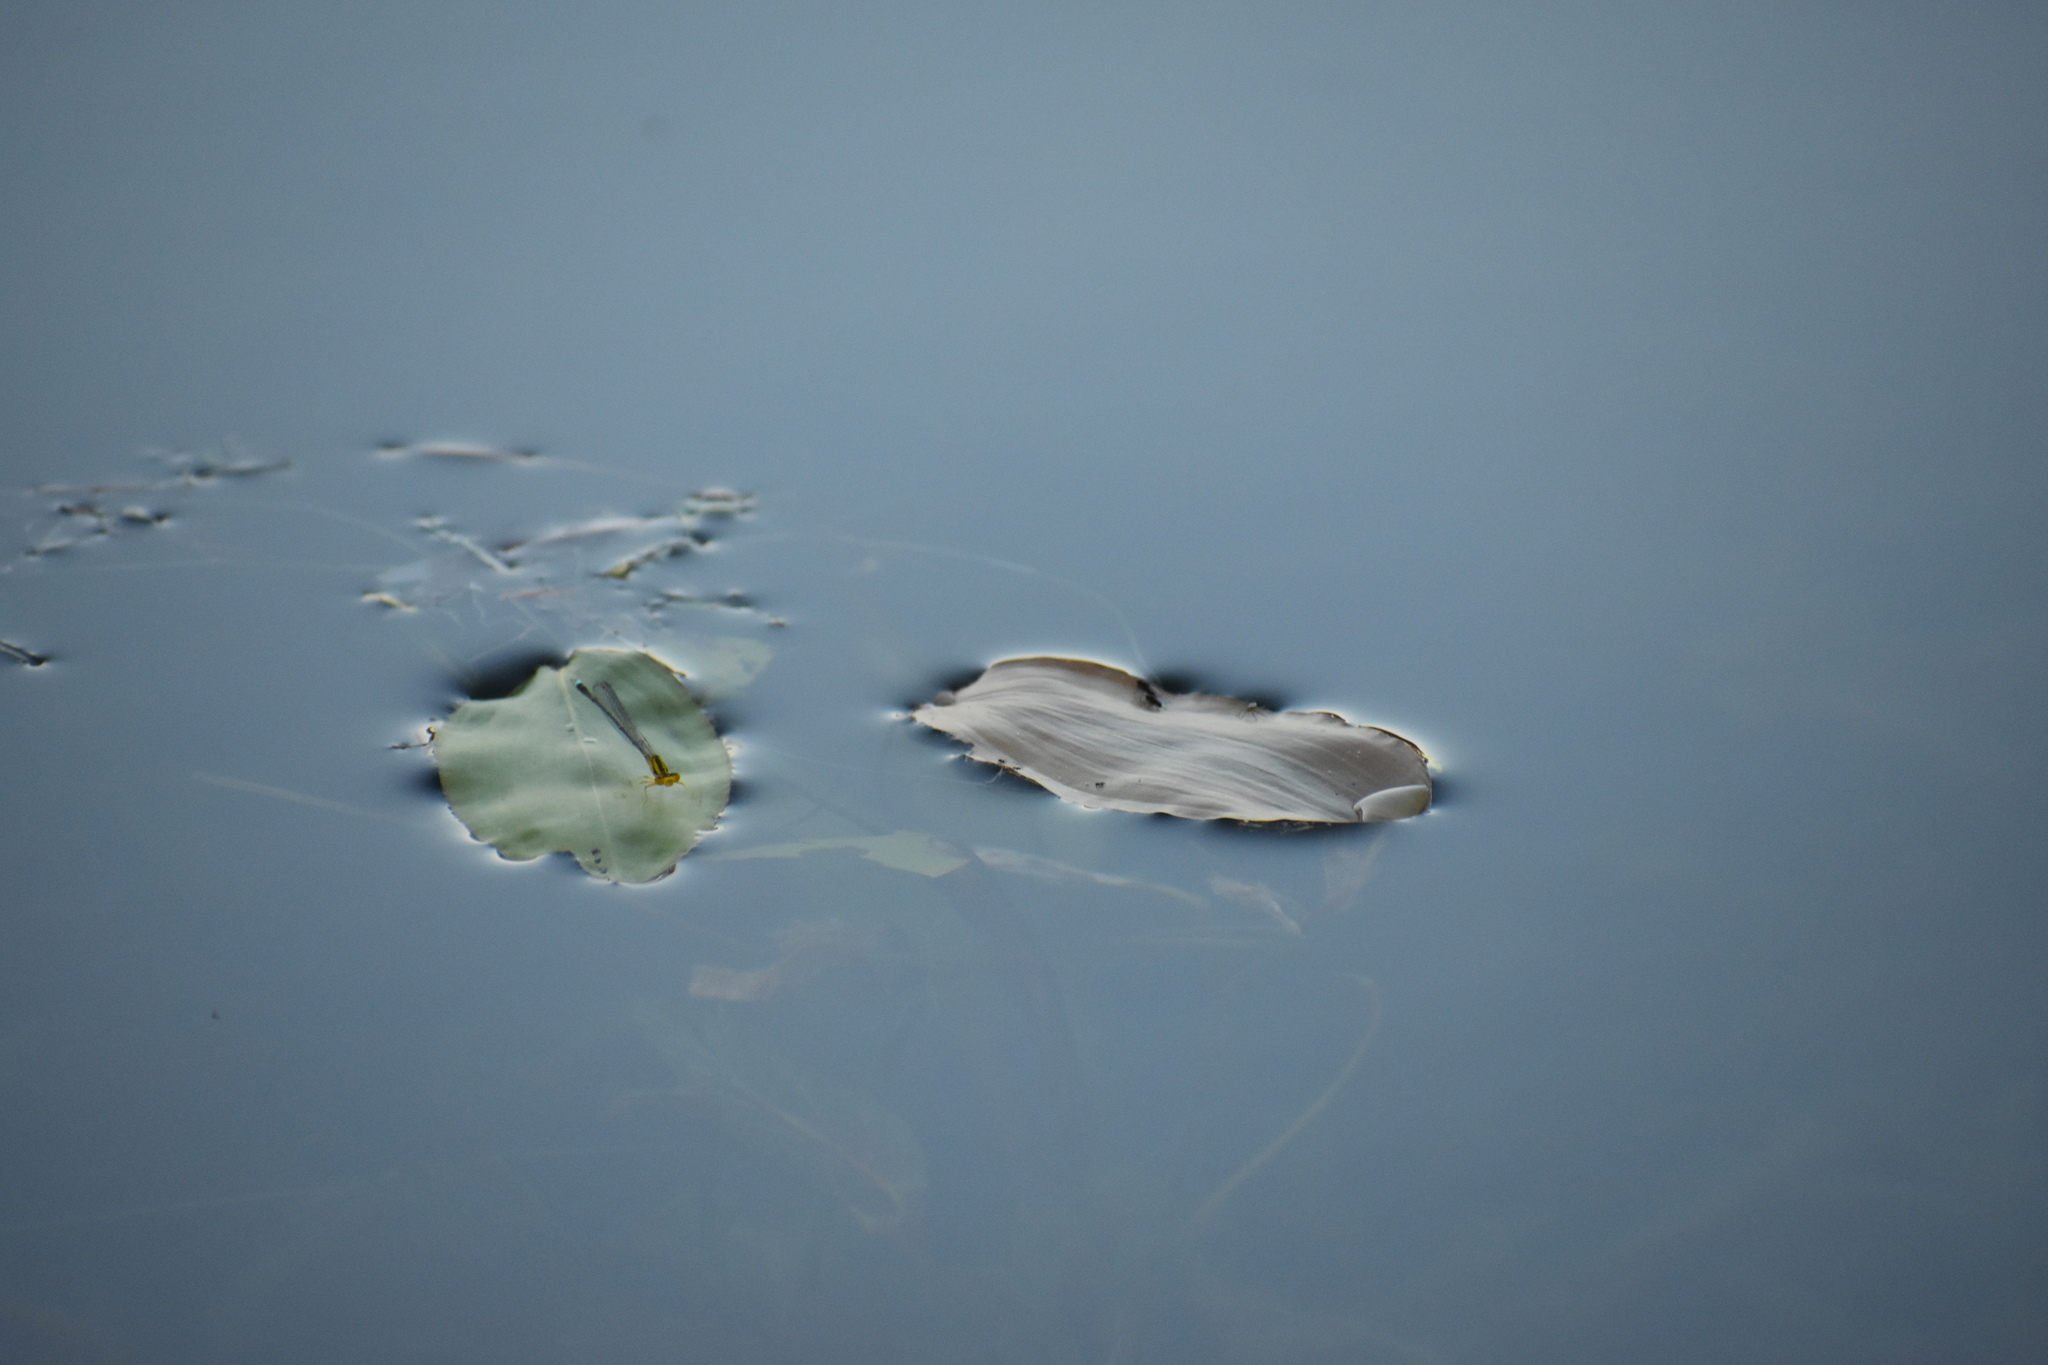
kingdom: Animalia
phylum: Arthropoda
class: Insecta
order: Odonata
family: Coenagrionidae
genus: Enallagma
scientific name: Enallagma vesperum
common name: Vesper bluet
